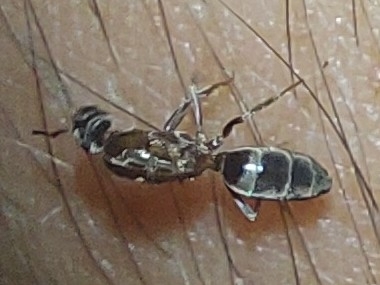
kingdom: Animalia
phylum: Arthropoda
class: Insecta
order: Hymenoptera
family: Formicidae
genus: Linepithema
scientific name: Linepithema humile
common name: Argentine ant
